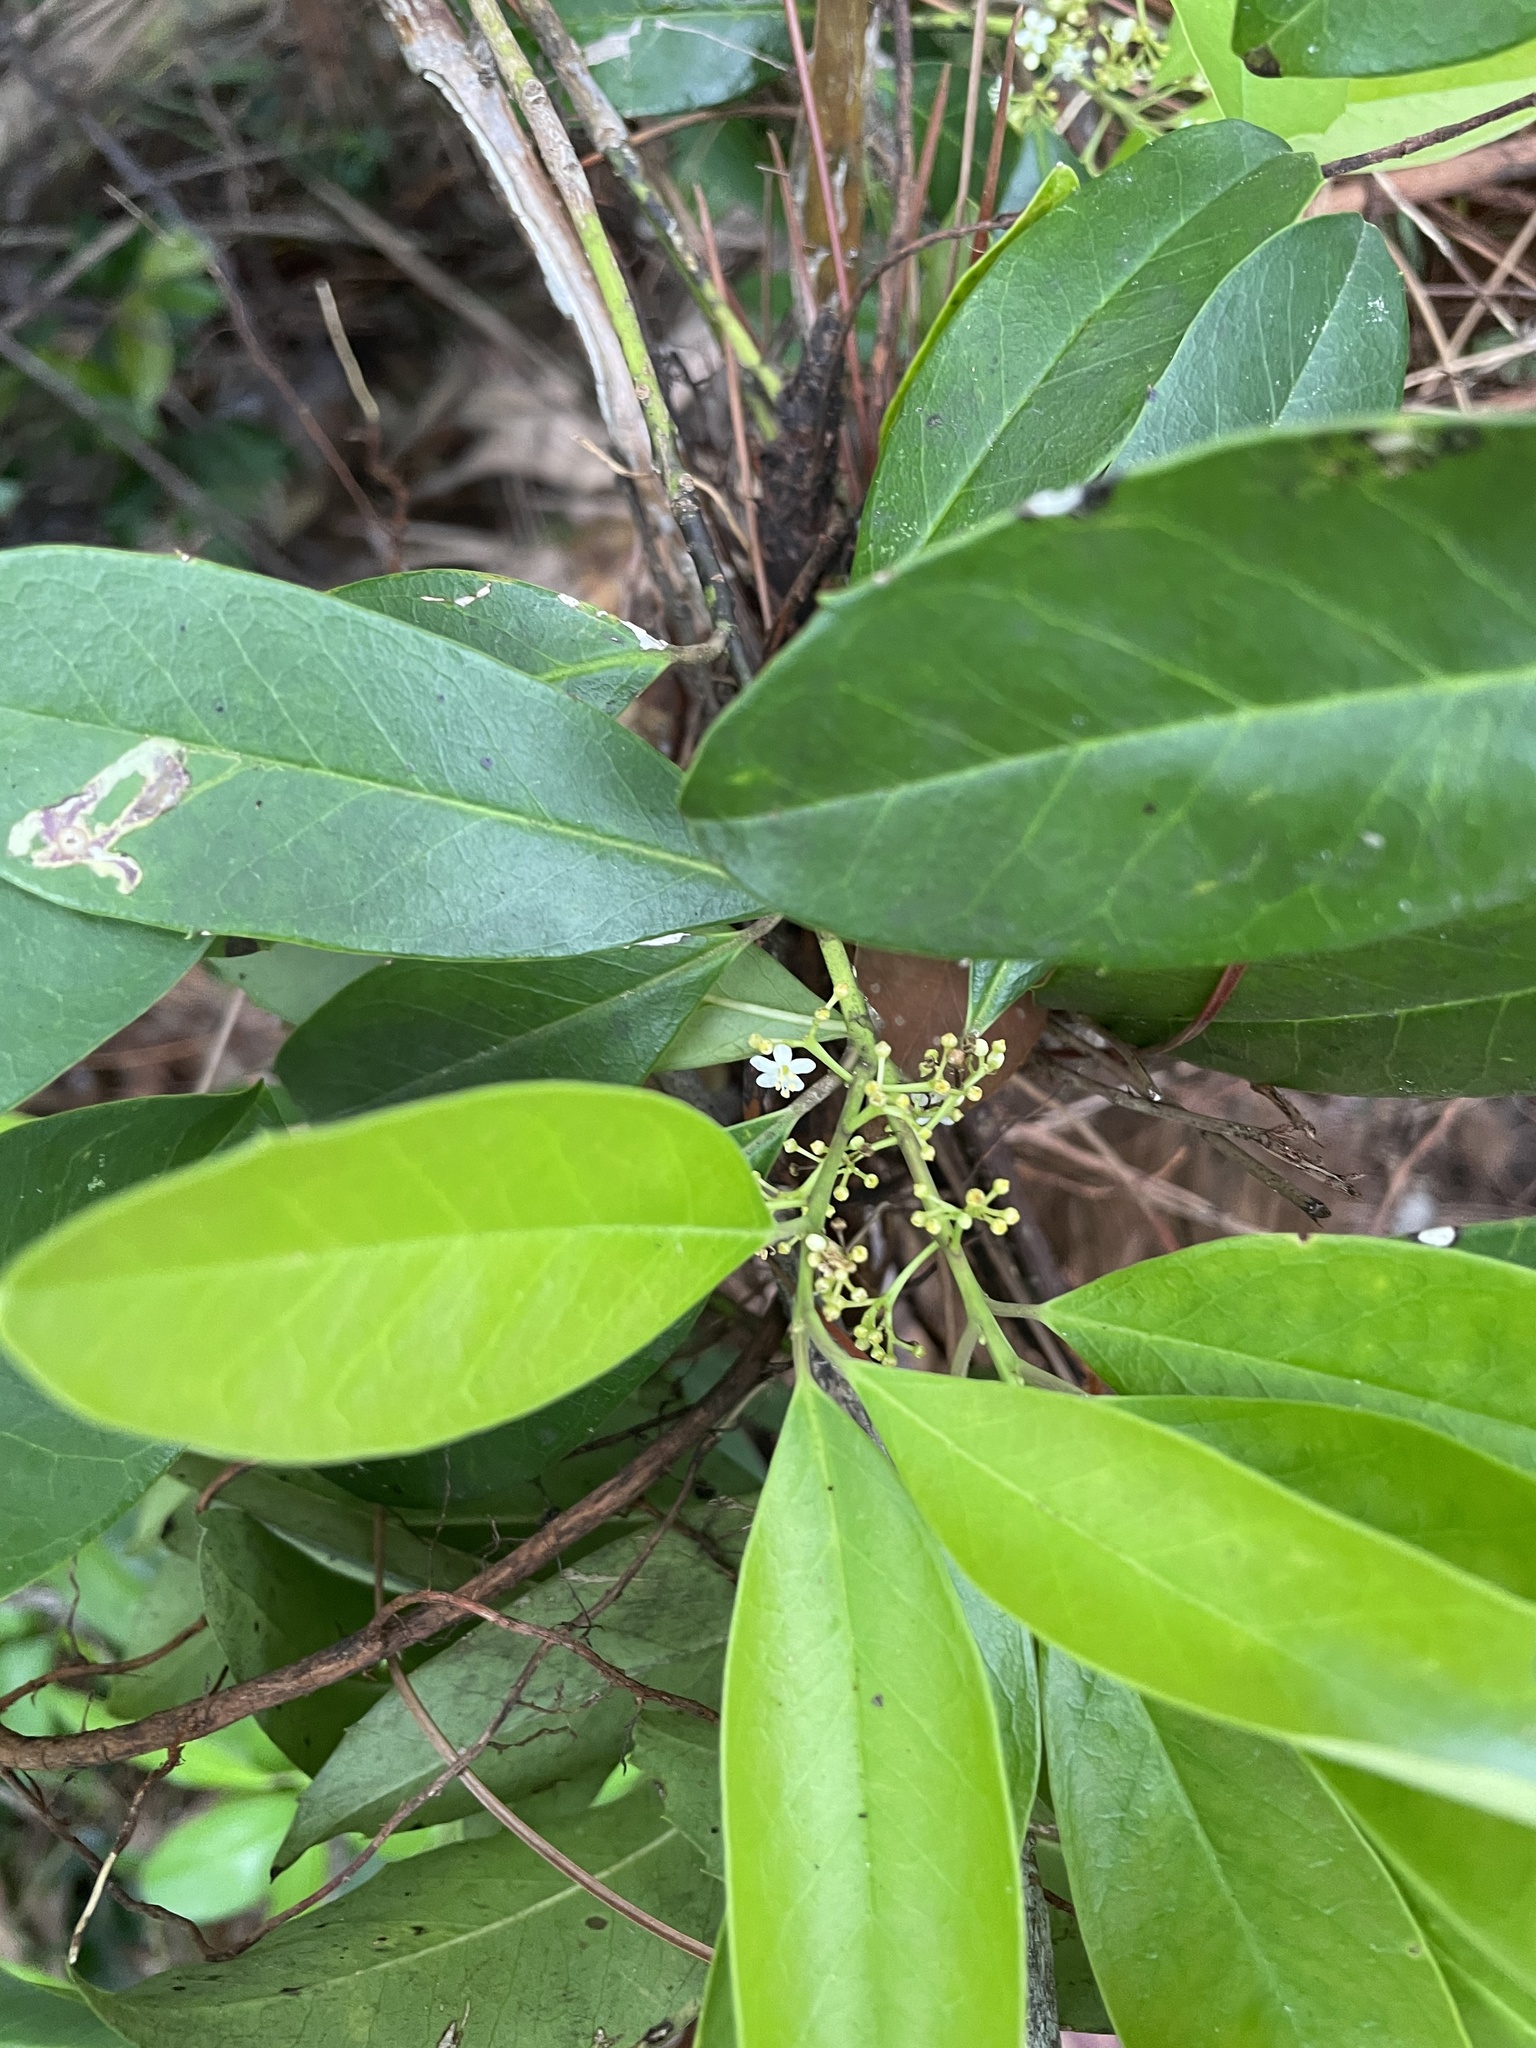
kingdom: Plantae
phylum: Tracheophyta
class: Magnoliopsida
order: Aquifoliales
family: Aquifoliaceae
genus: Ilex
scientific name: Ilex cassine
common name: Dahoon
